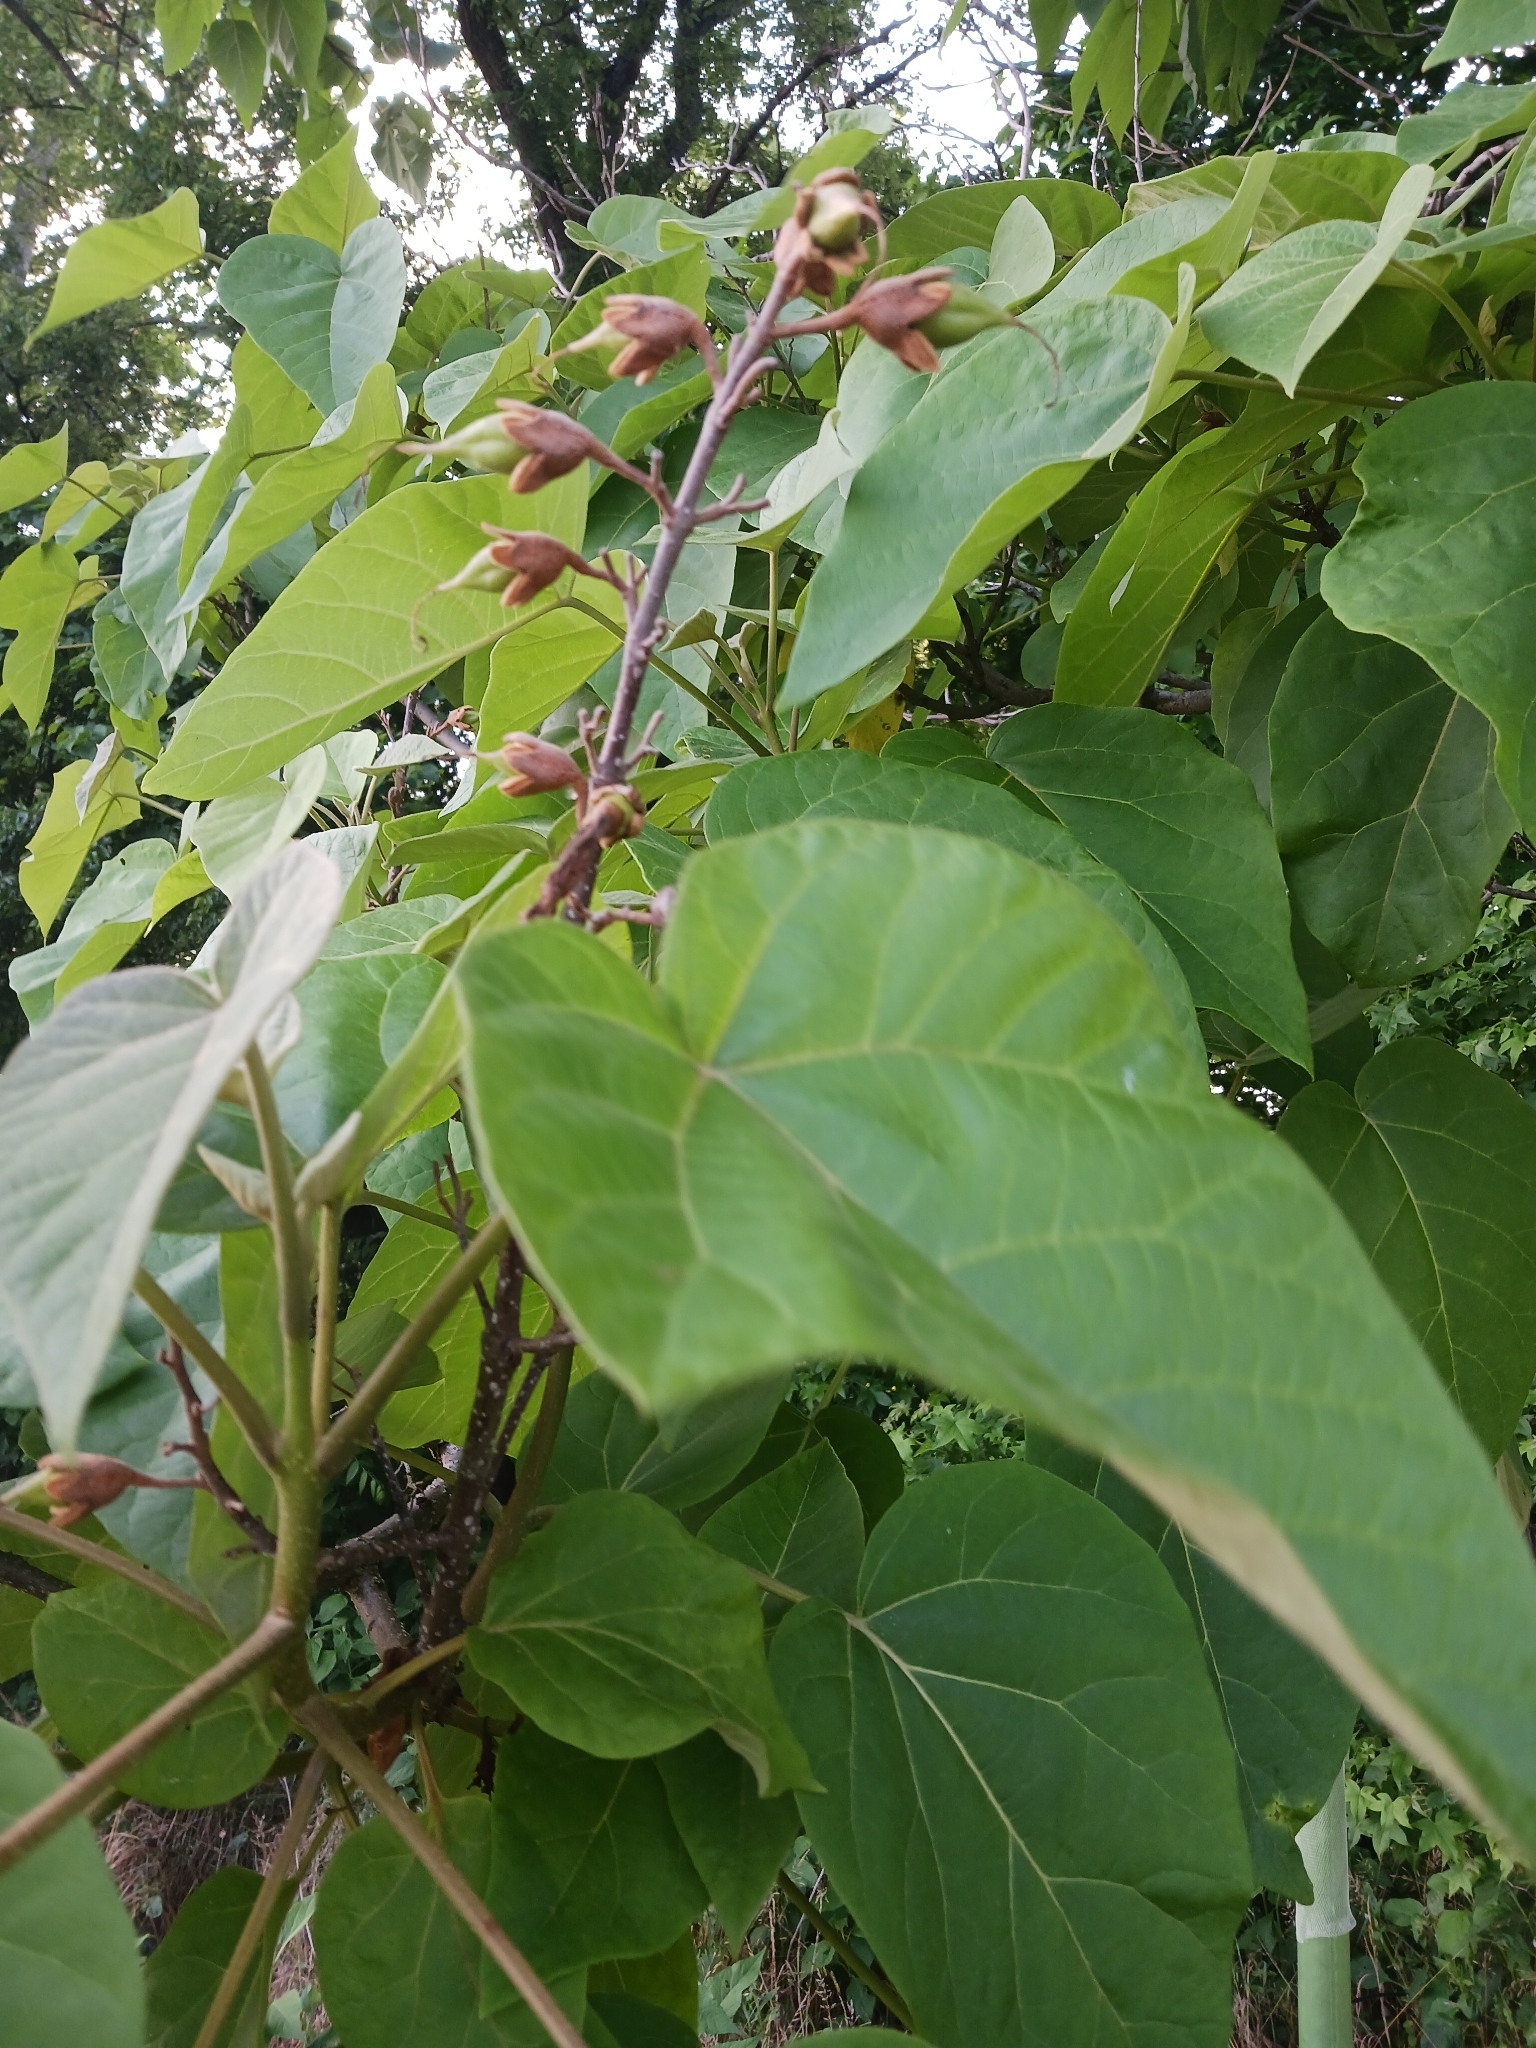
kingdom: Plantae
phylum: Tracheophyta
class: Magnoliopsida
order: Lamiales
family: Paulowniaceae
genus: Paulownia
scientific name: Paulownia tomentosa
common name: Foxglove-tree
